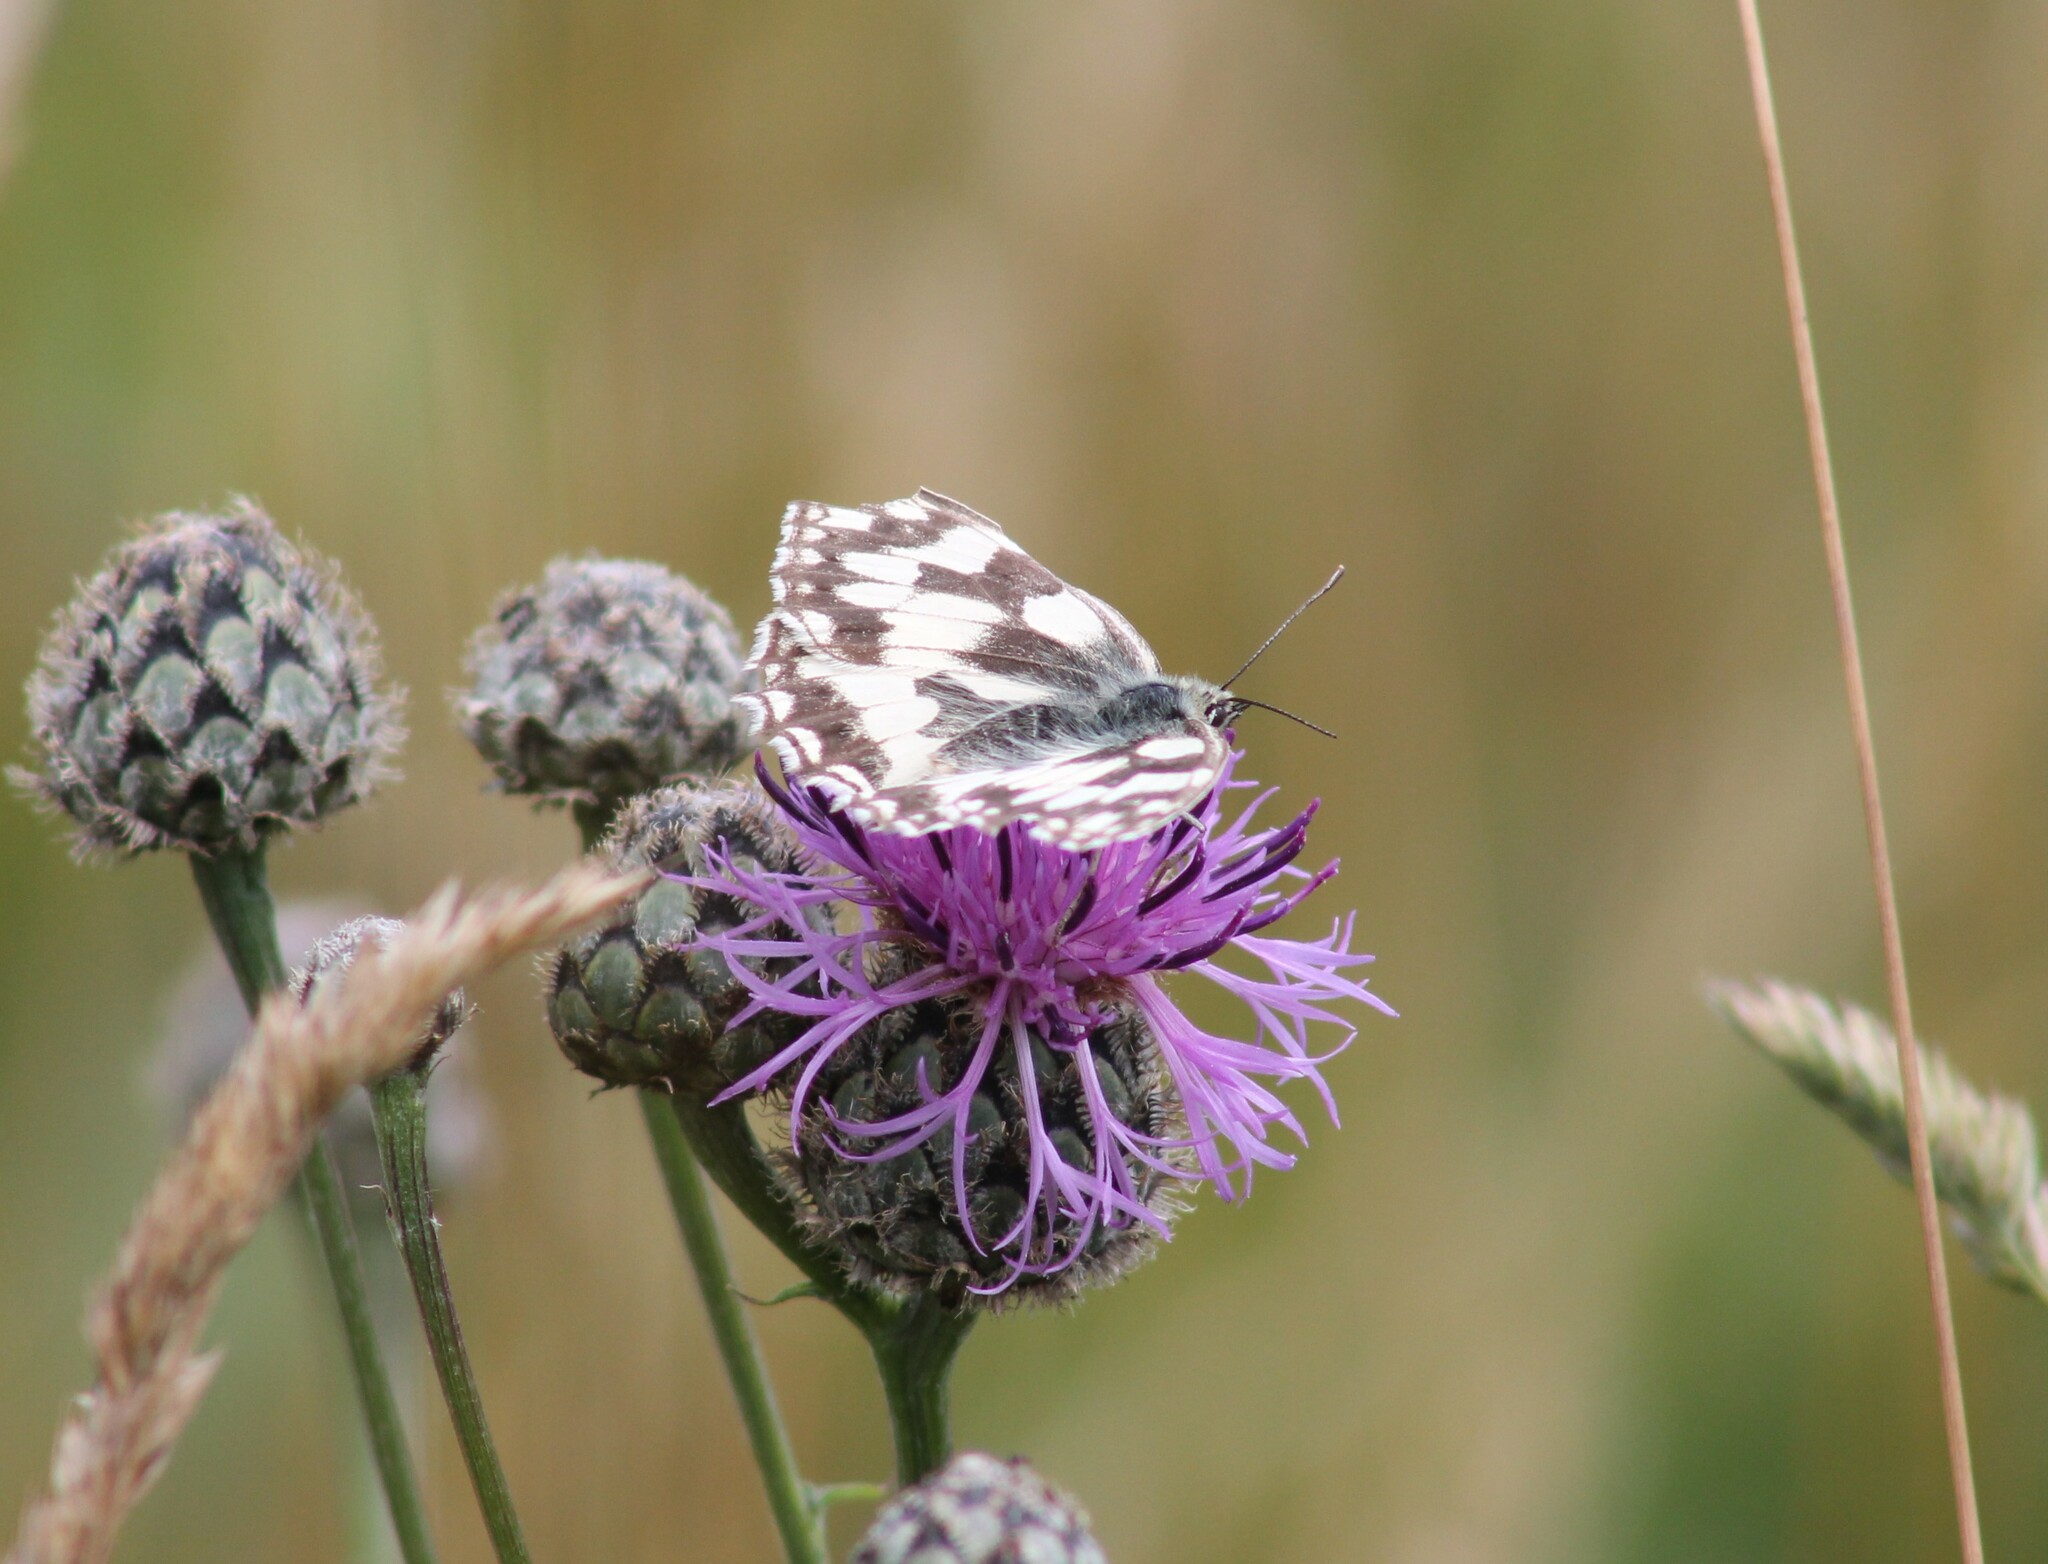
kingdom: Animalia
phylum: Arthropoda
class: Insecta
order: Lepidoptera
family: Nymphalidae
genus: Melanargia
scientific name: Melanargia galathea
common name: Marbled white
